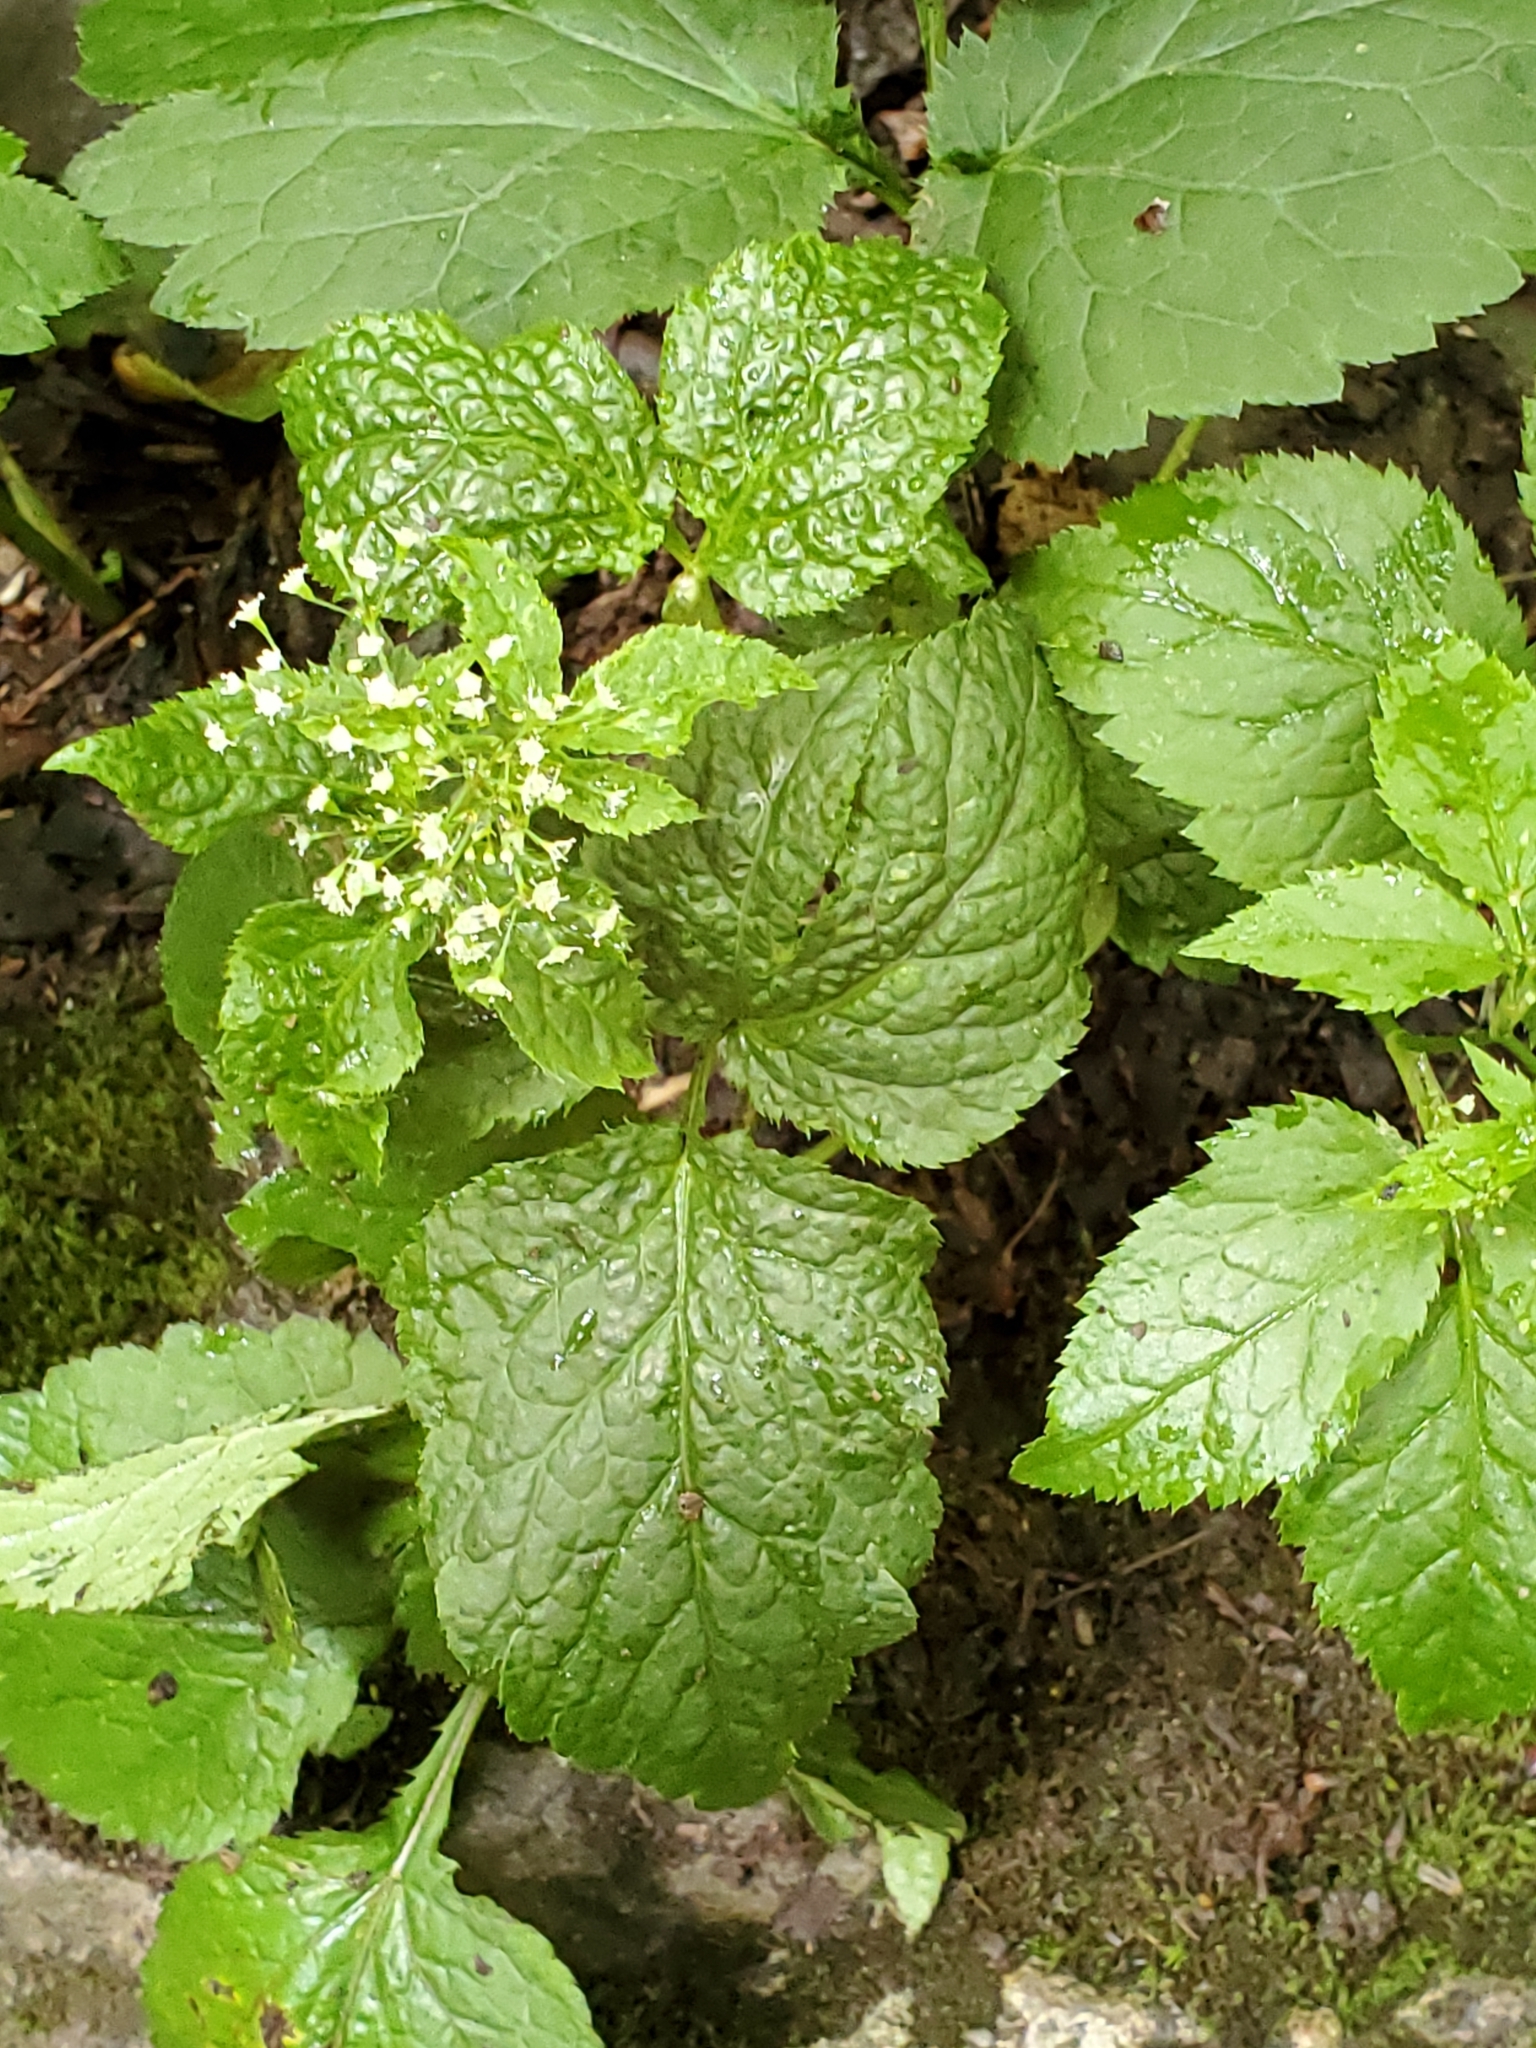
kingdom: Plantae
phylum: Tracheophyta
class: Magnoliopsida
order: Apiales
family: Apiaceae
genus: Cryptotaenia
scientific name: Cryptotaenia canadensis
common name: Honewort
